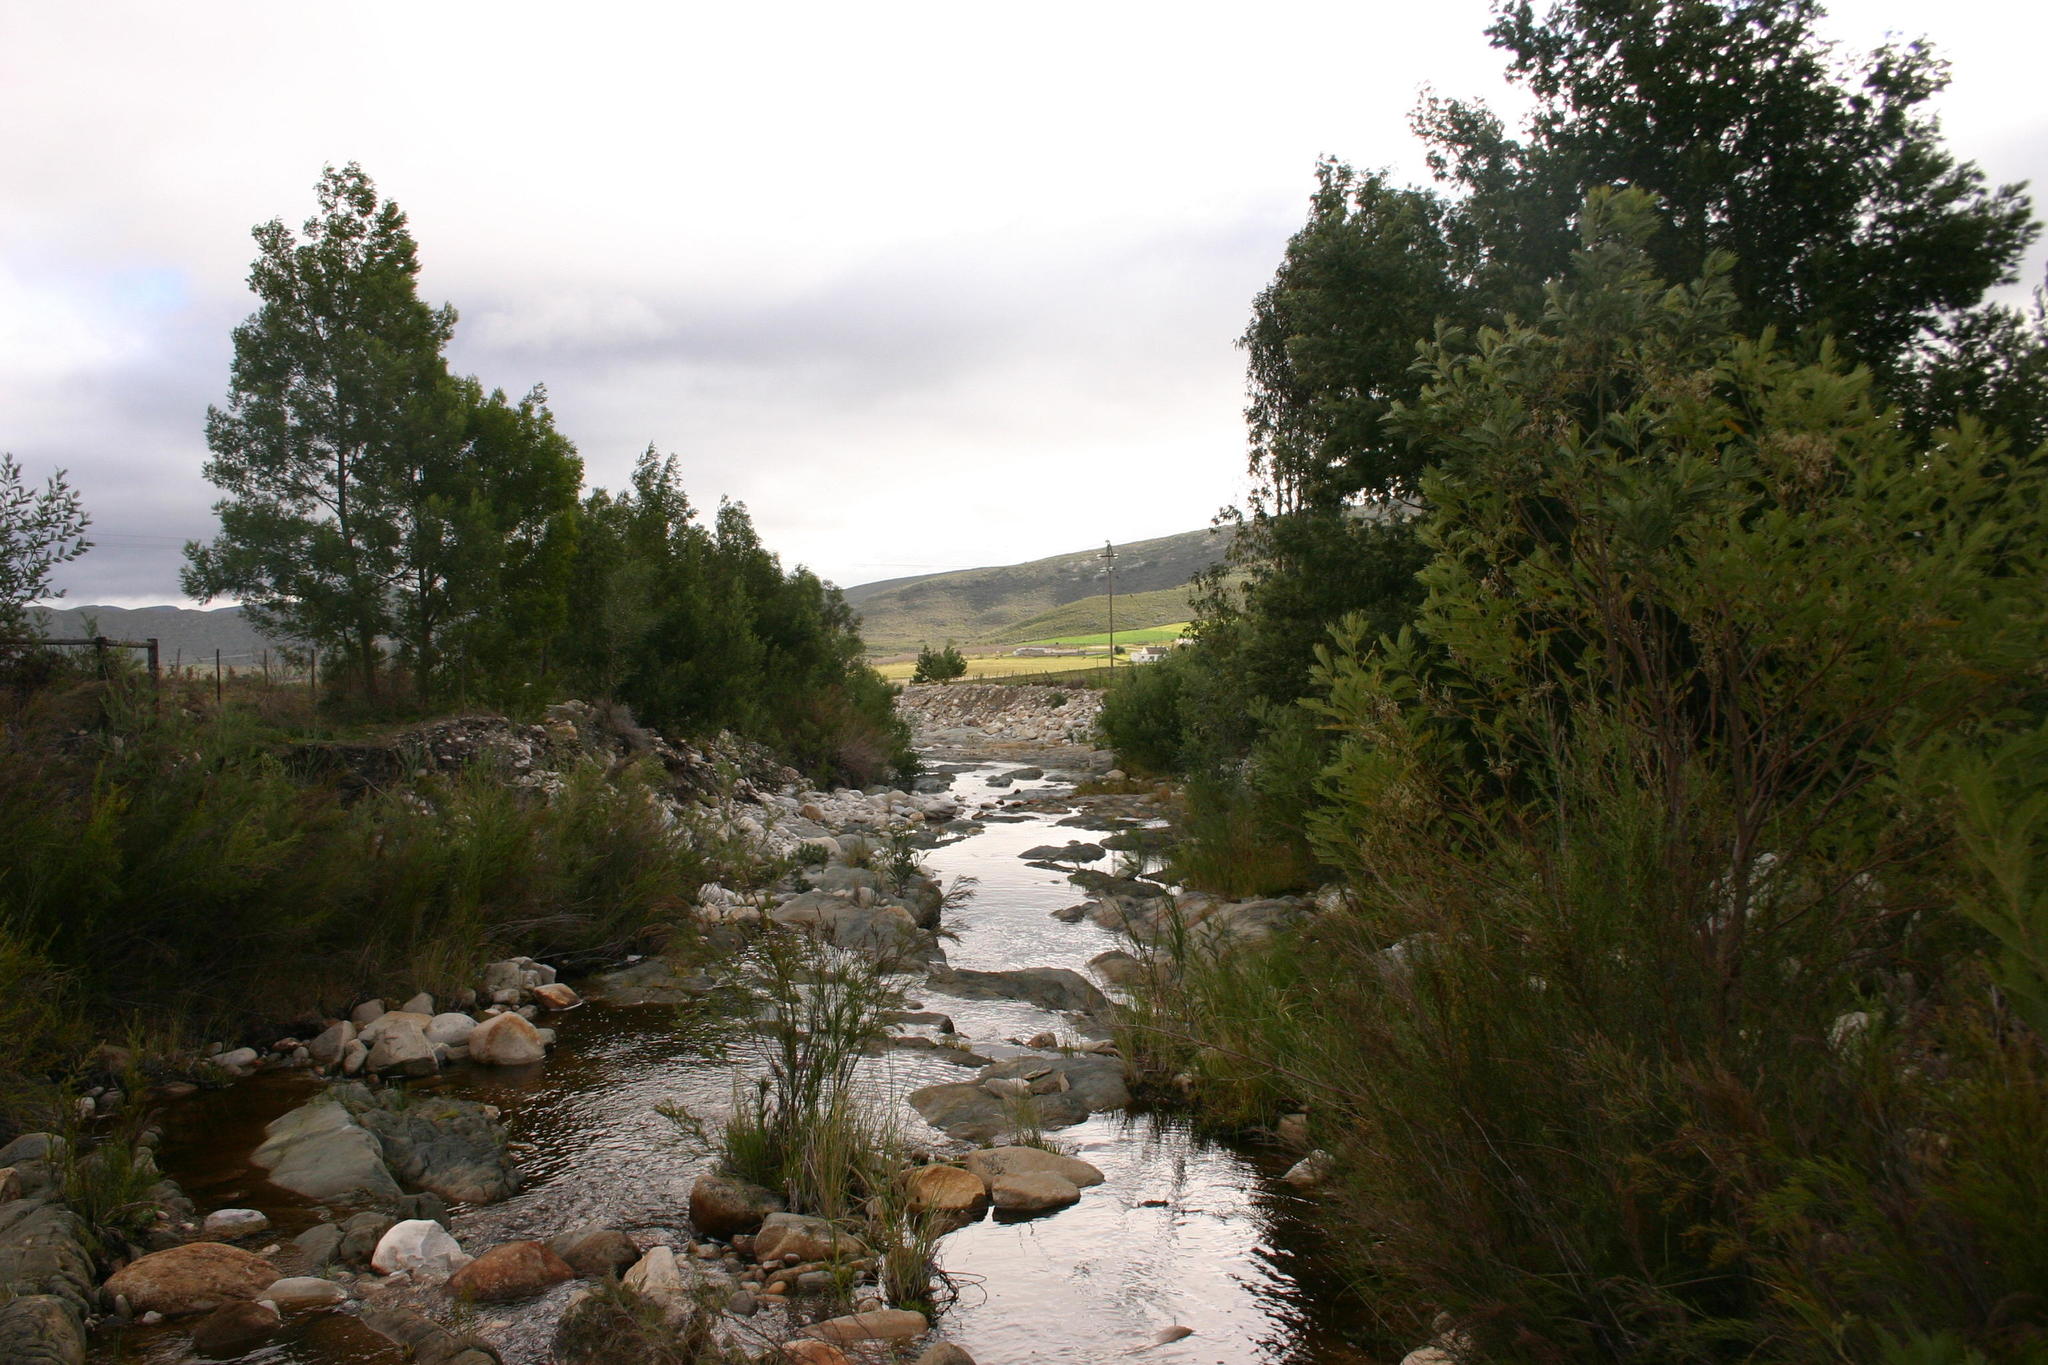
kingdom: Plantae
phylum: Tracheophyta
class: Magnoliopsida
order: Fabales
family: Fabaceae
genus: Acacia
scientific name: Acacia mearnsii
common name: Black wattle
